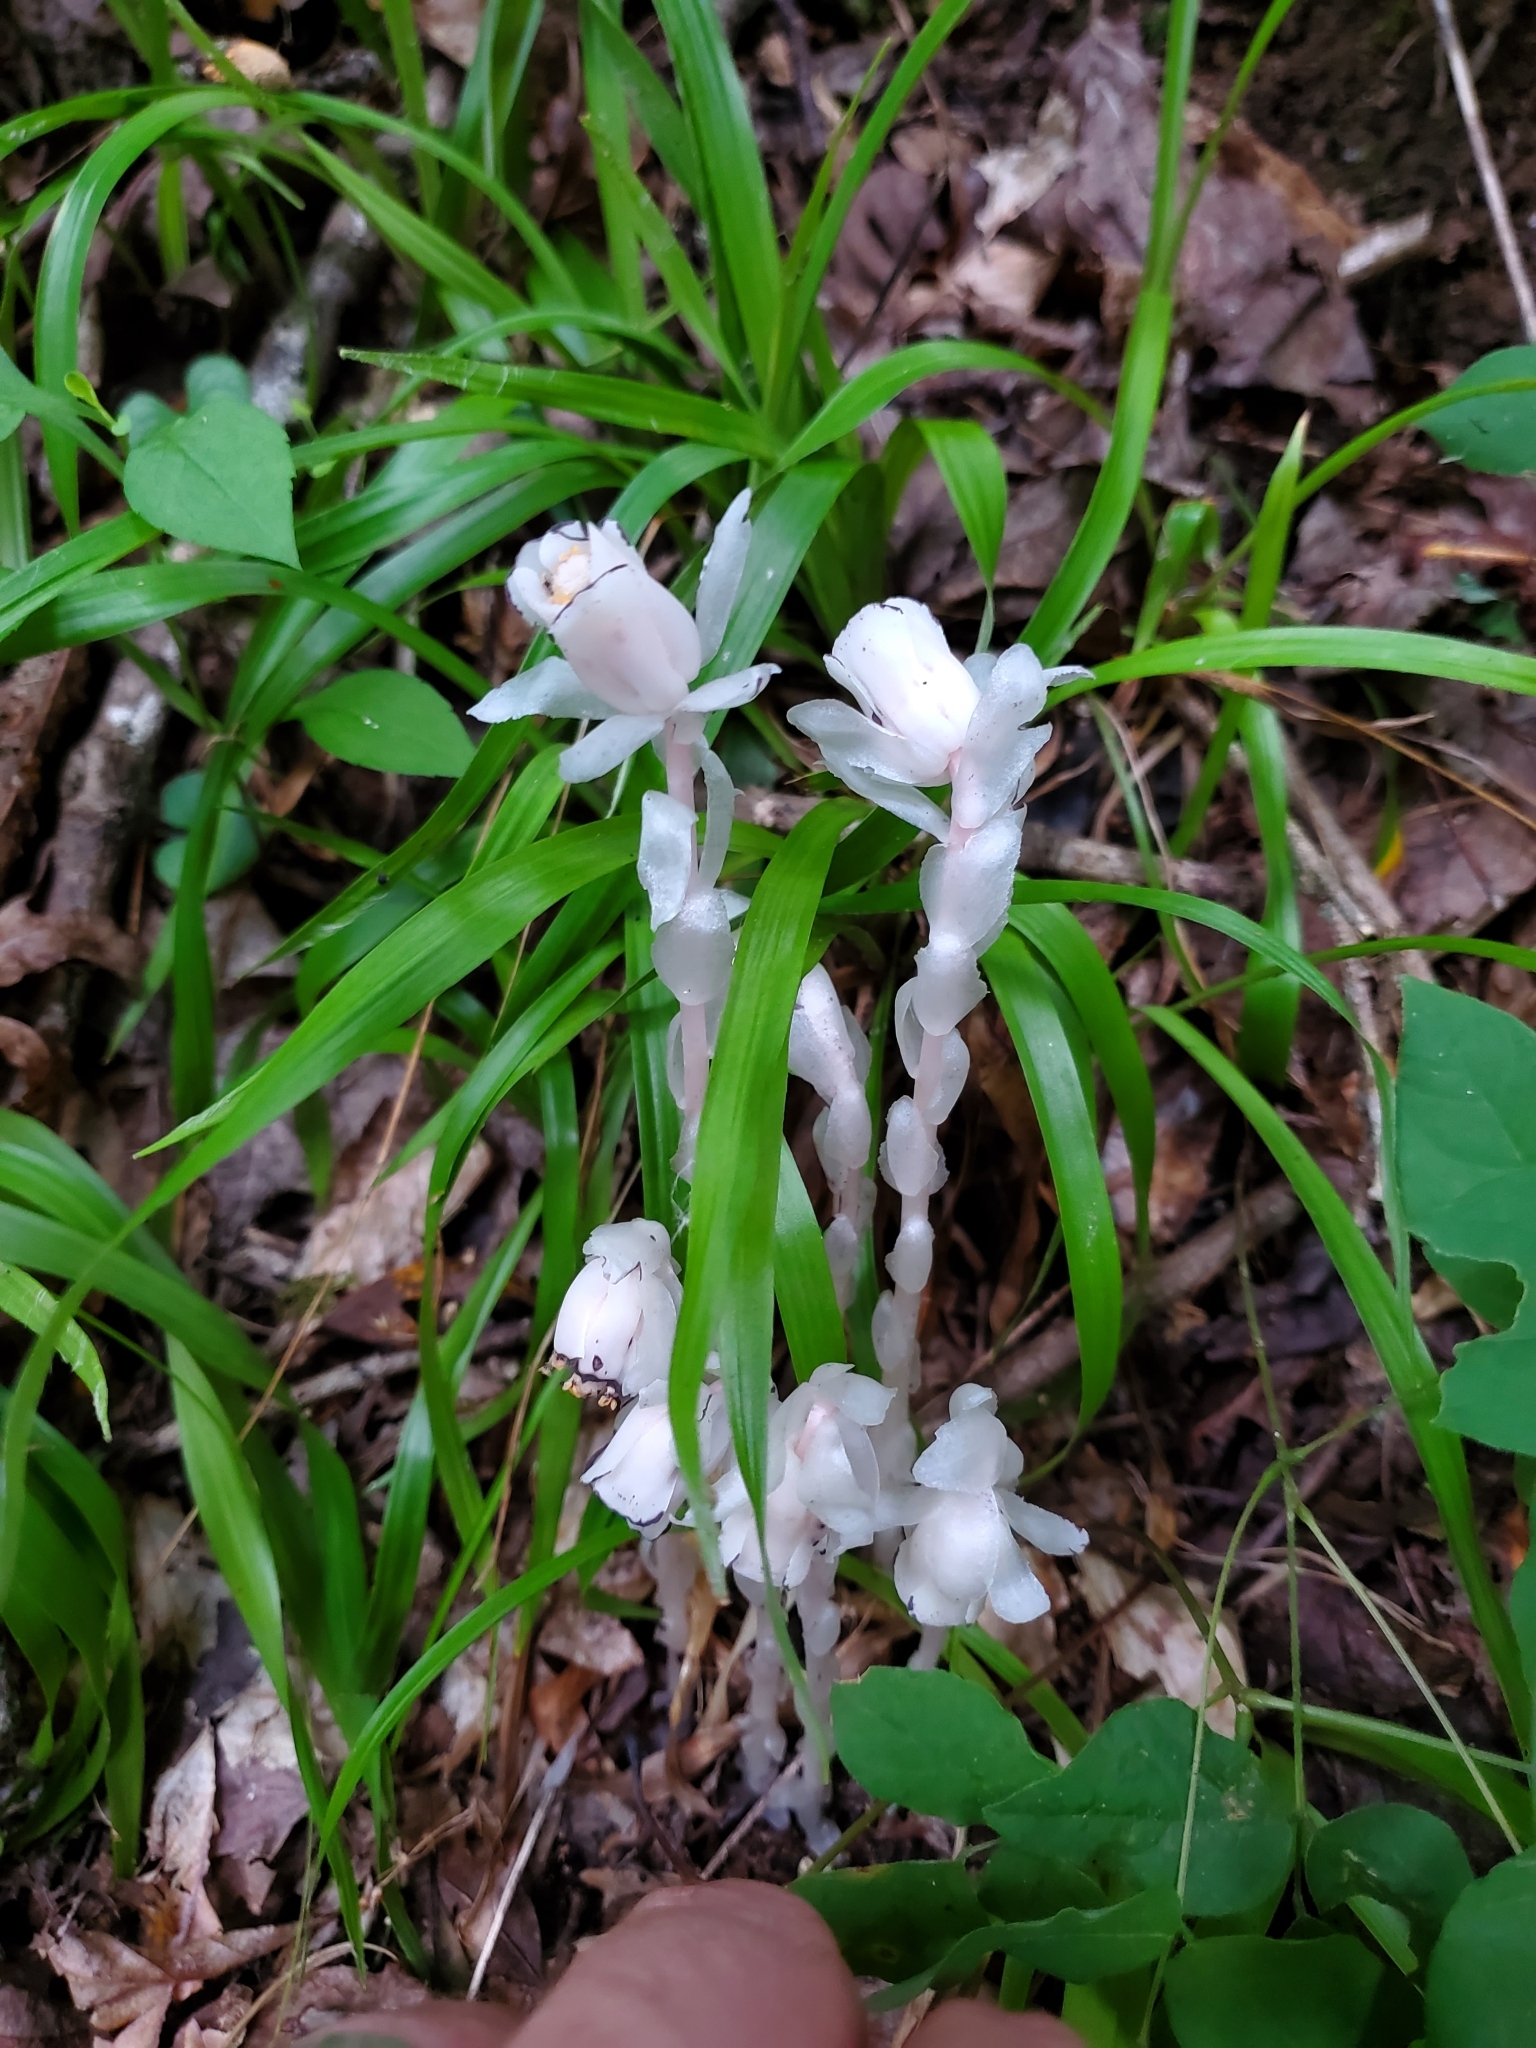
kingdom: Plantae
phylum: Tracheophyta
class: Magnoliopsida
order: Ericales
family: Ericaceae
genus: Monotropa
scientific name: Monotropa uniflora
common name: Convulsion root
